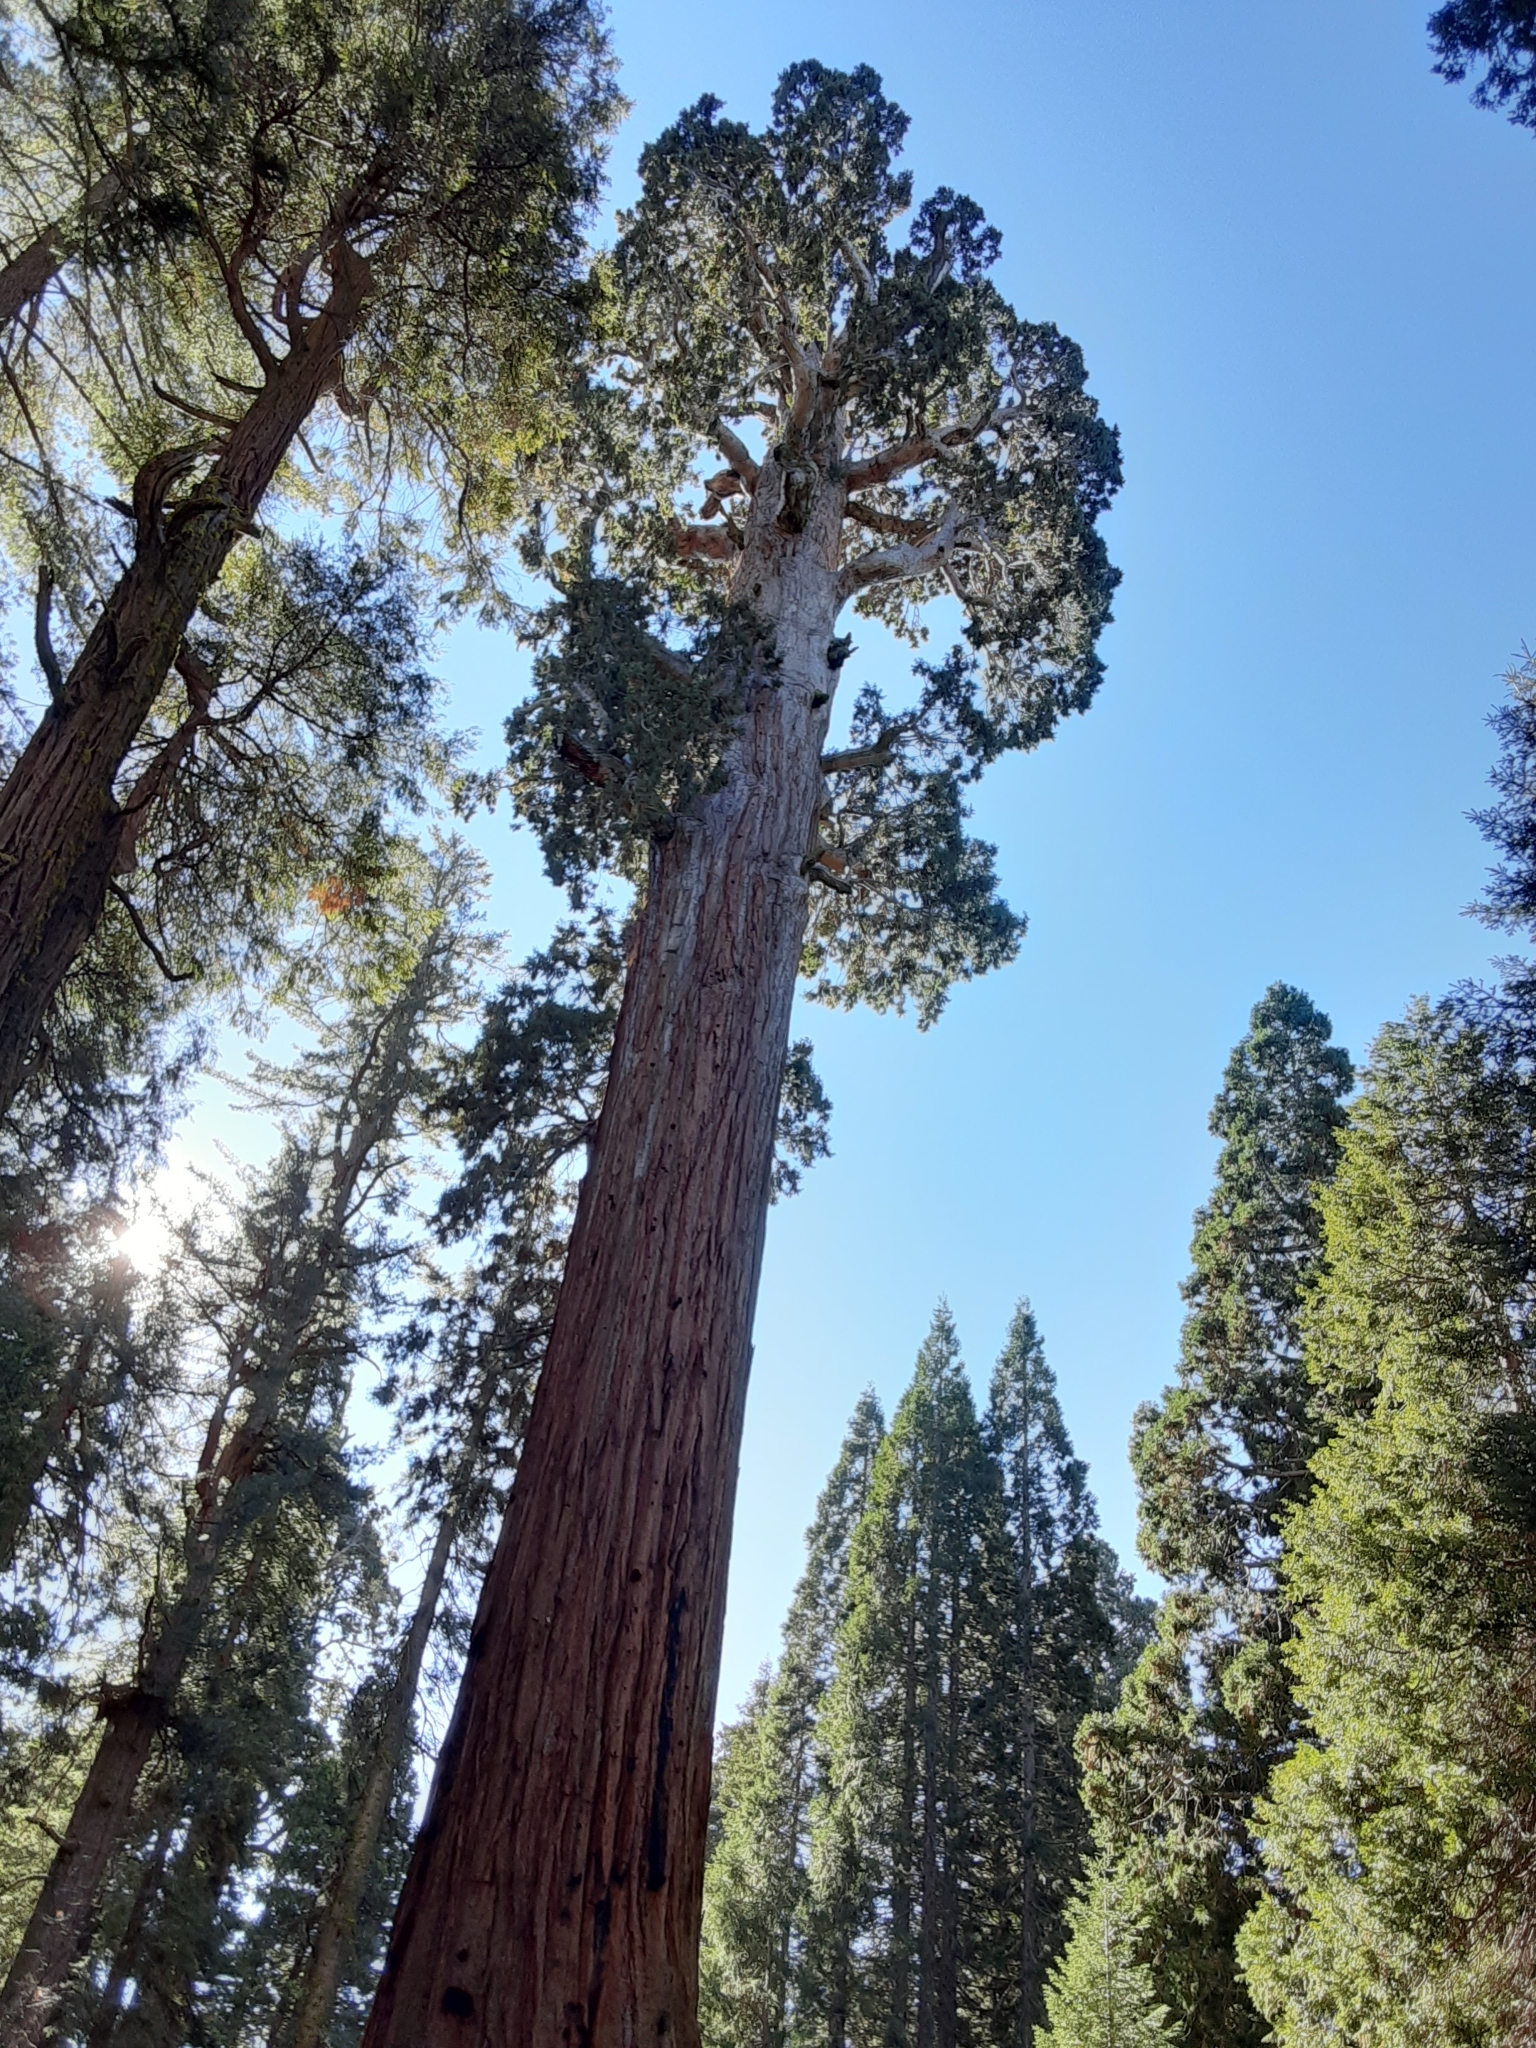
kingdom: Plantae
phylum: Tracheophyta
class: Pinopsida
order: Pinales
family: Cupressaceae
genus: Sequoiadendron
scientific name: Sequoiadendron giganteum
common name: Wellingtonia
